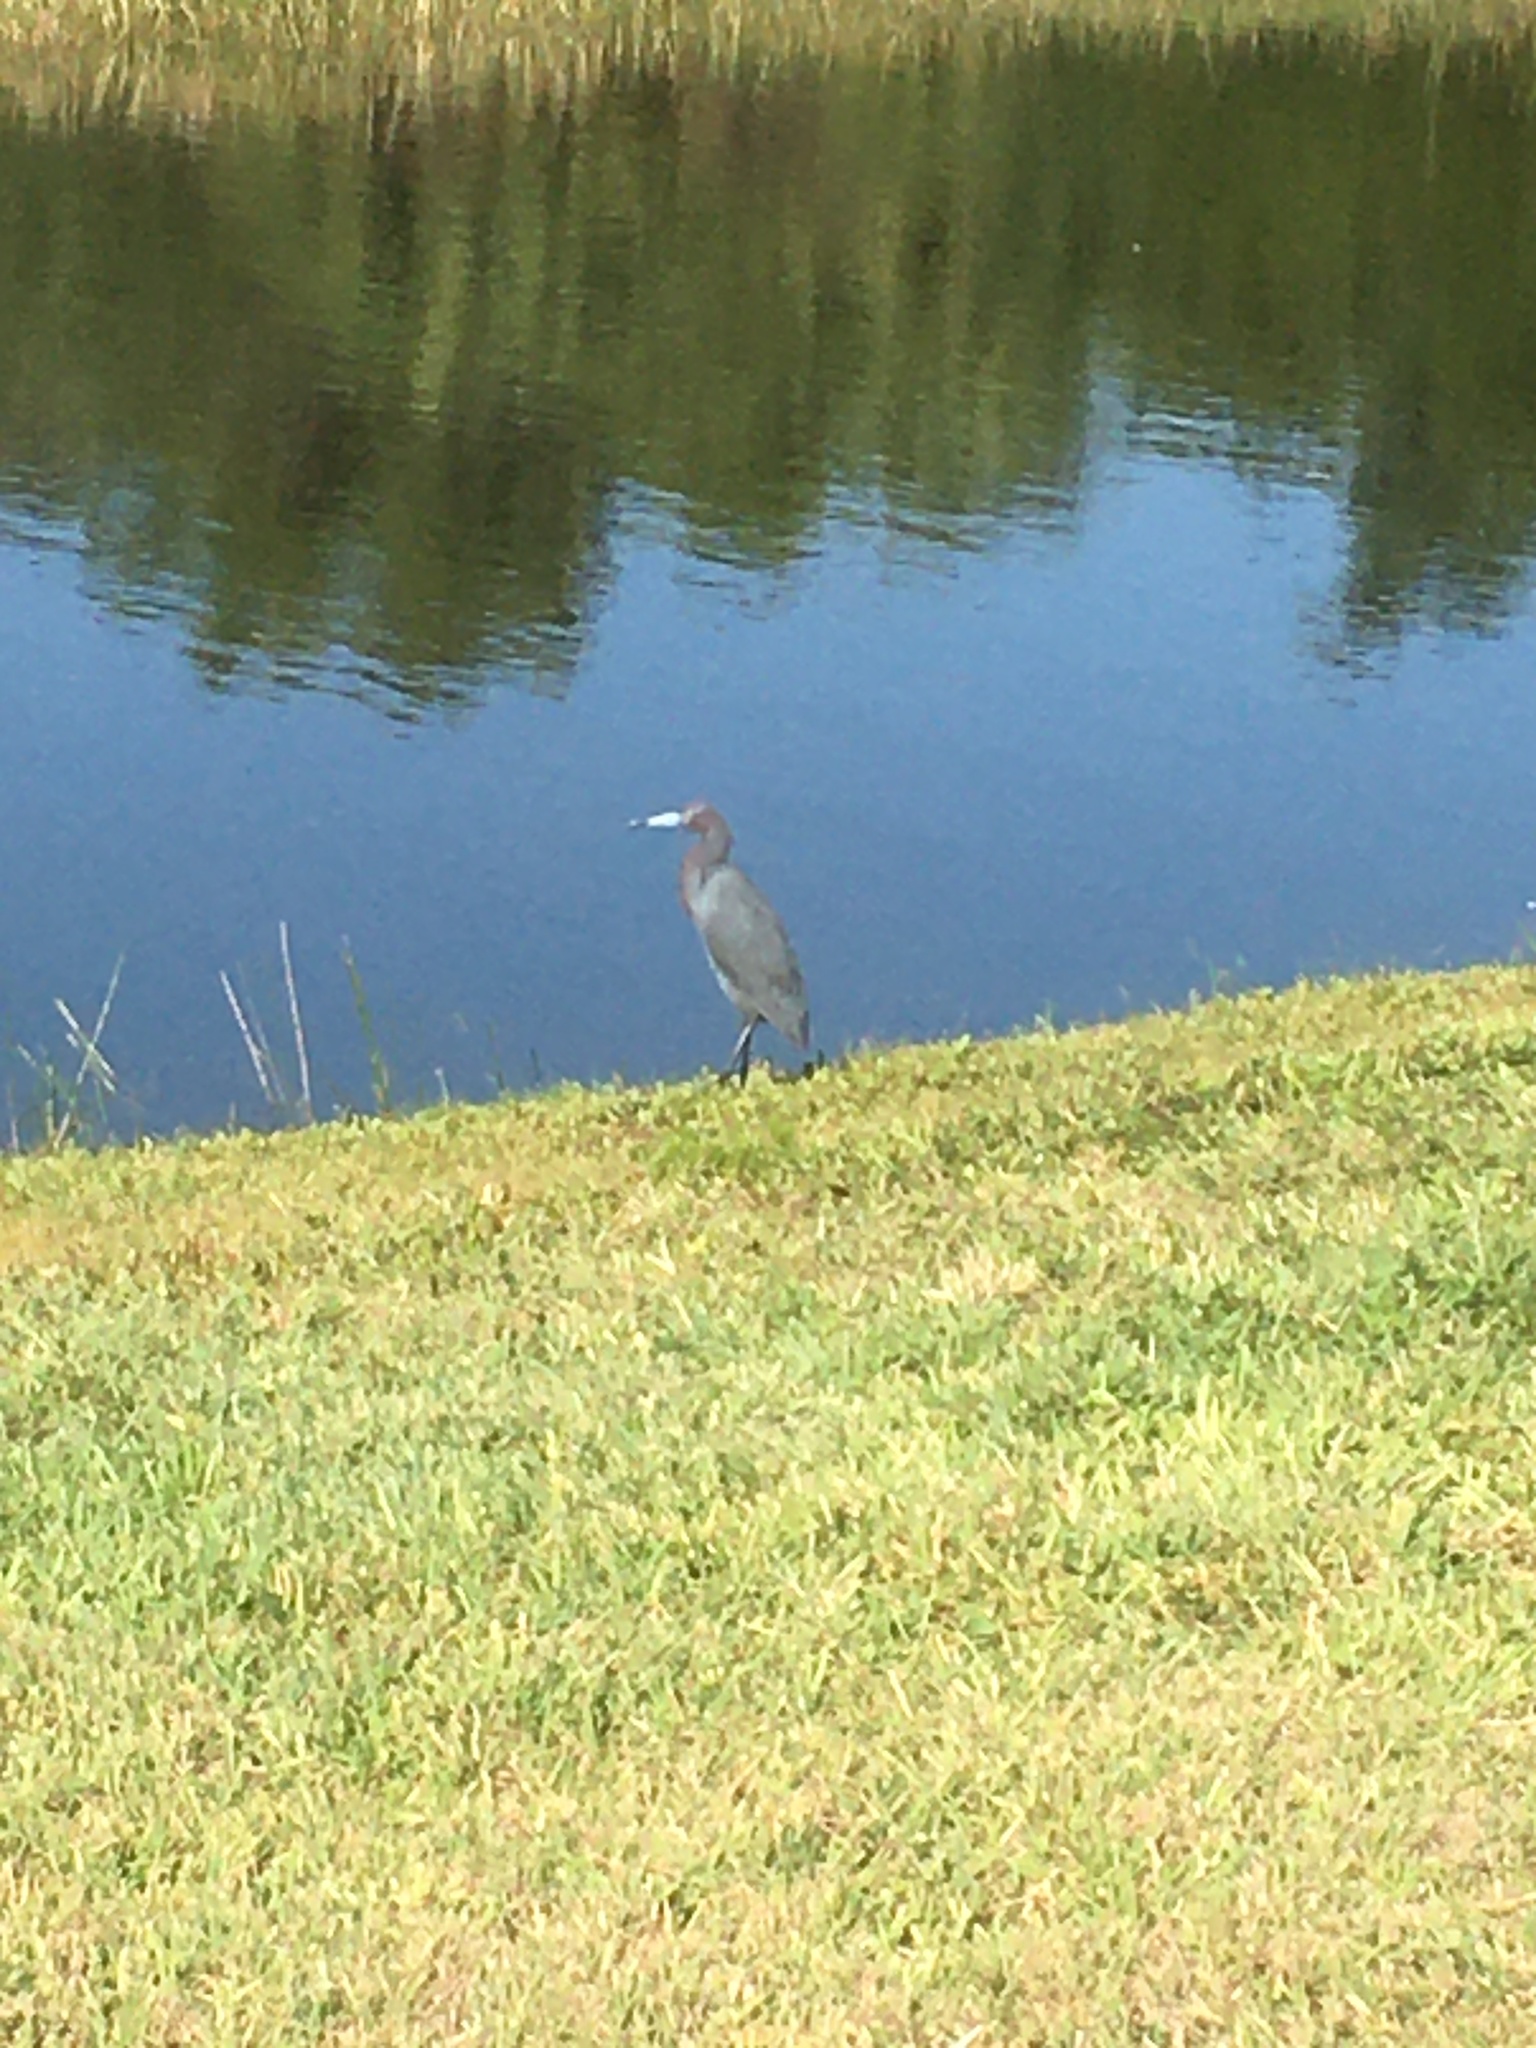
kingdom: Animalia
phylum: Chordata
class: Aves
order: Pelecaniformes
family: Ardeidae
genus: Egretta
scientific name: Egretta caerulea
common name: Little blue heron
